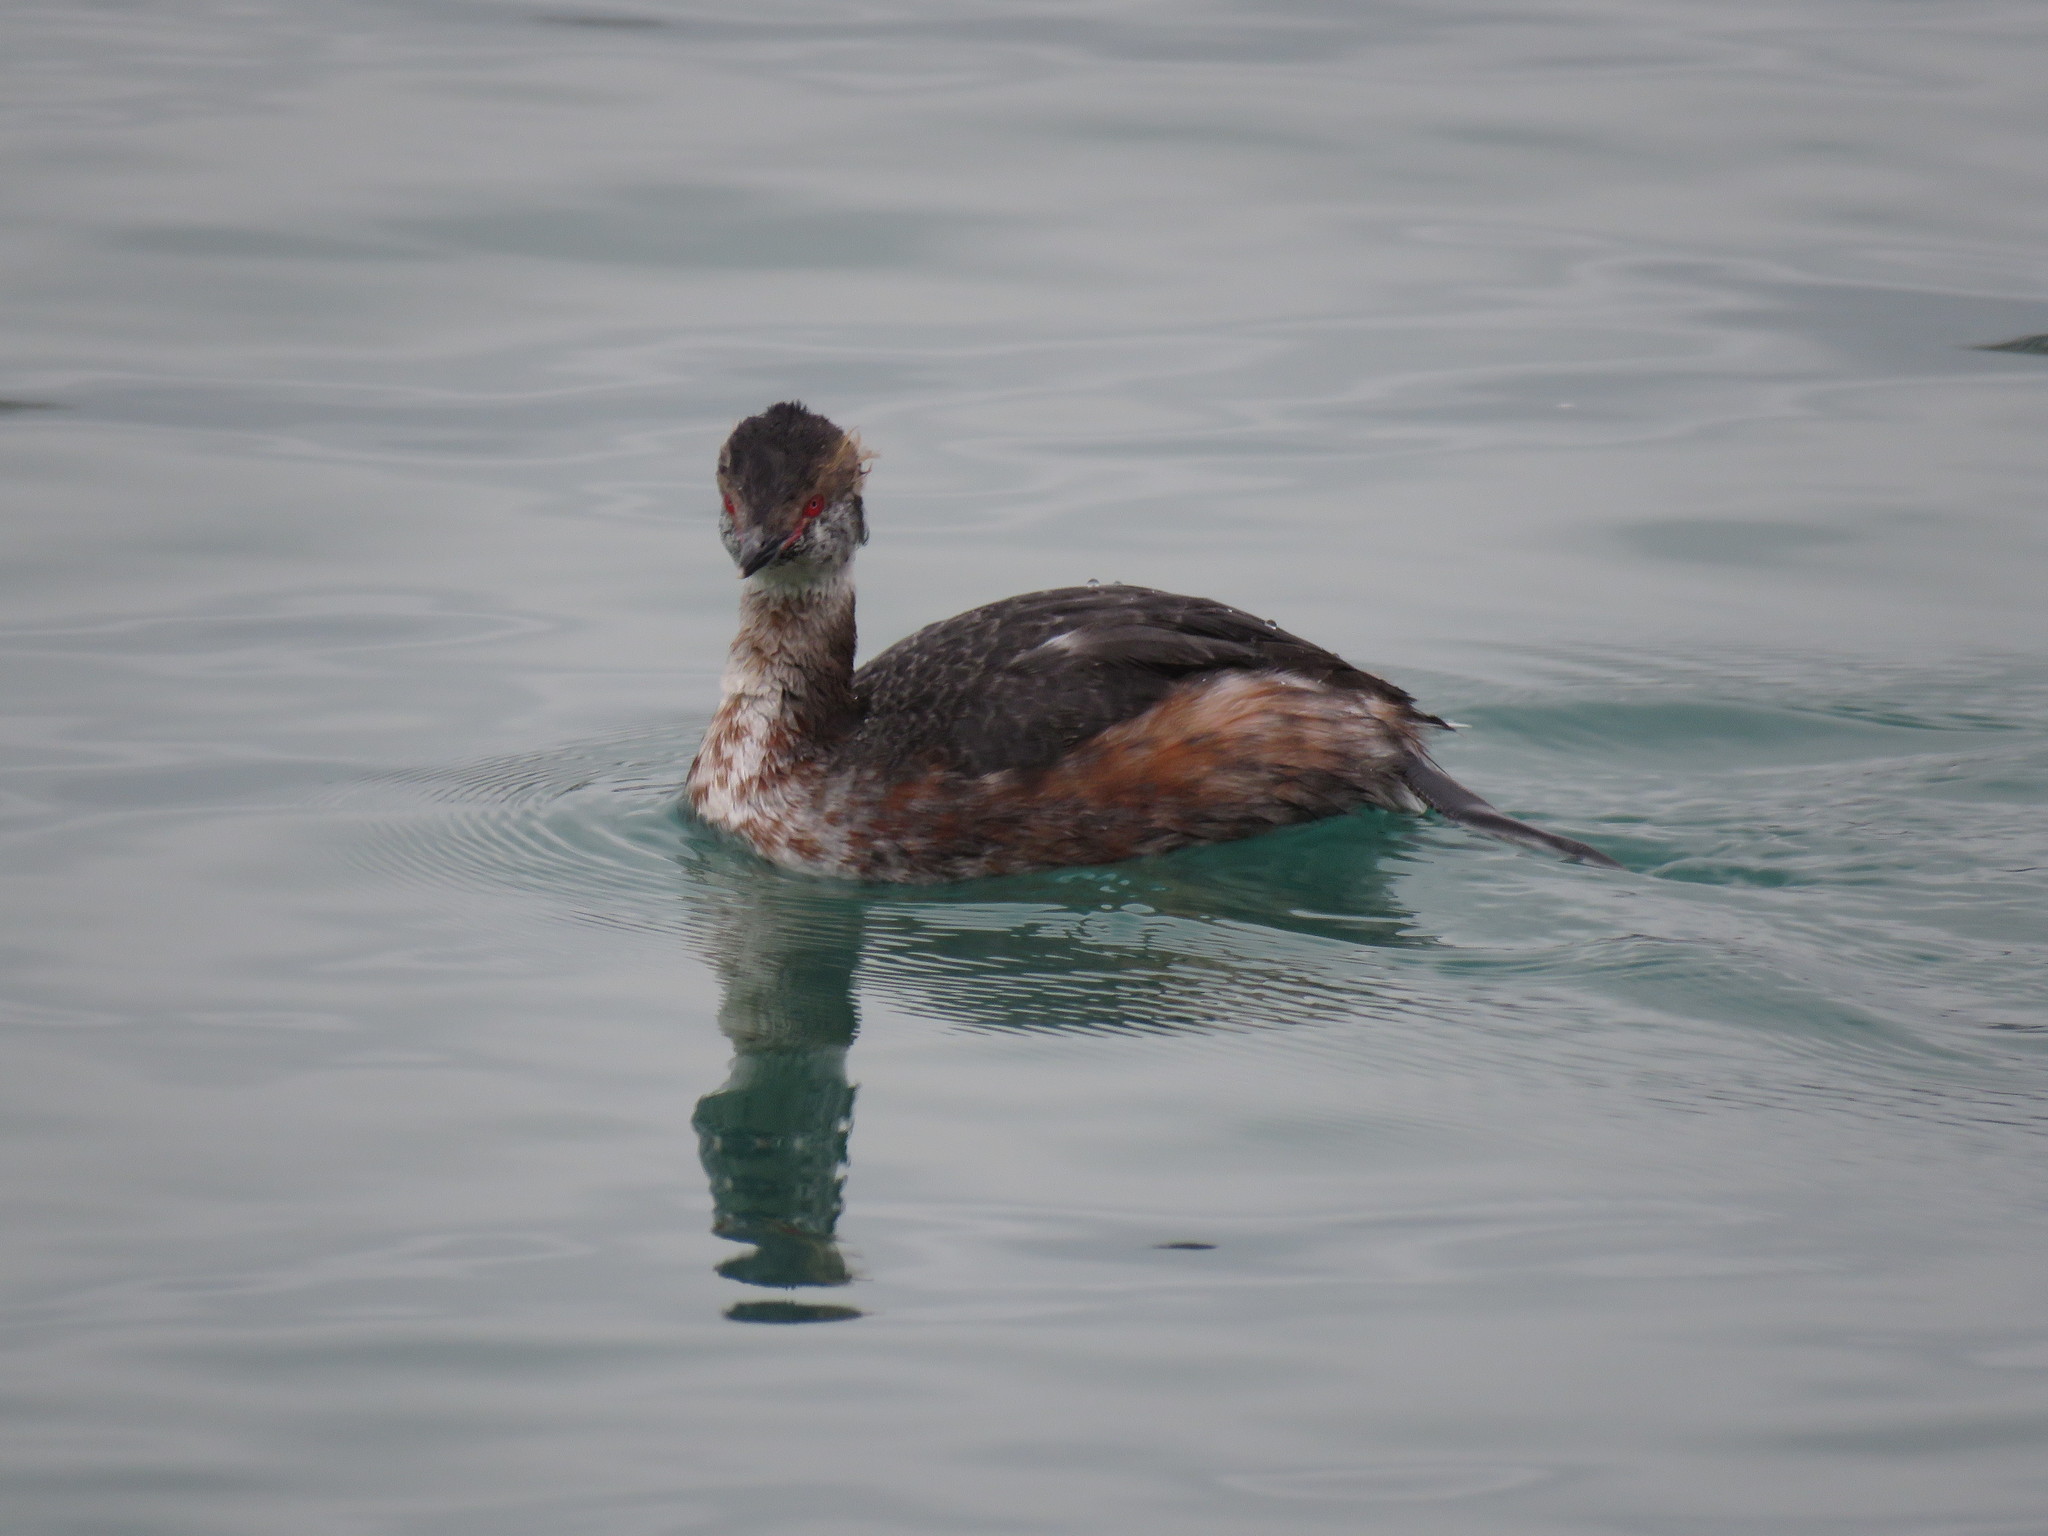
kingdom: Animalia
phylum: Chordata
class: Aves
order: Podicipediformes
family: Podicipedidae
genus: Podiceps
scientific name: Podiceps auritus
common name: Horned grebe
